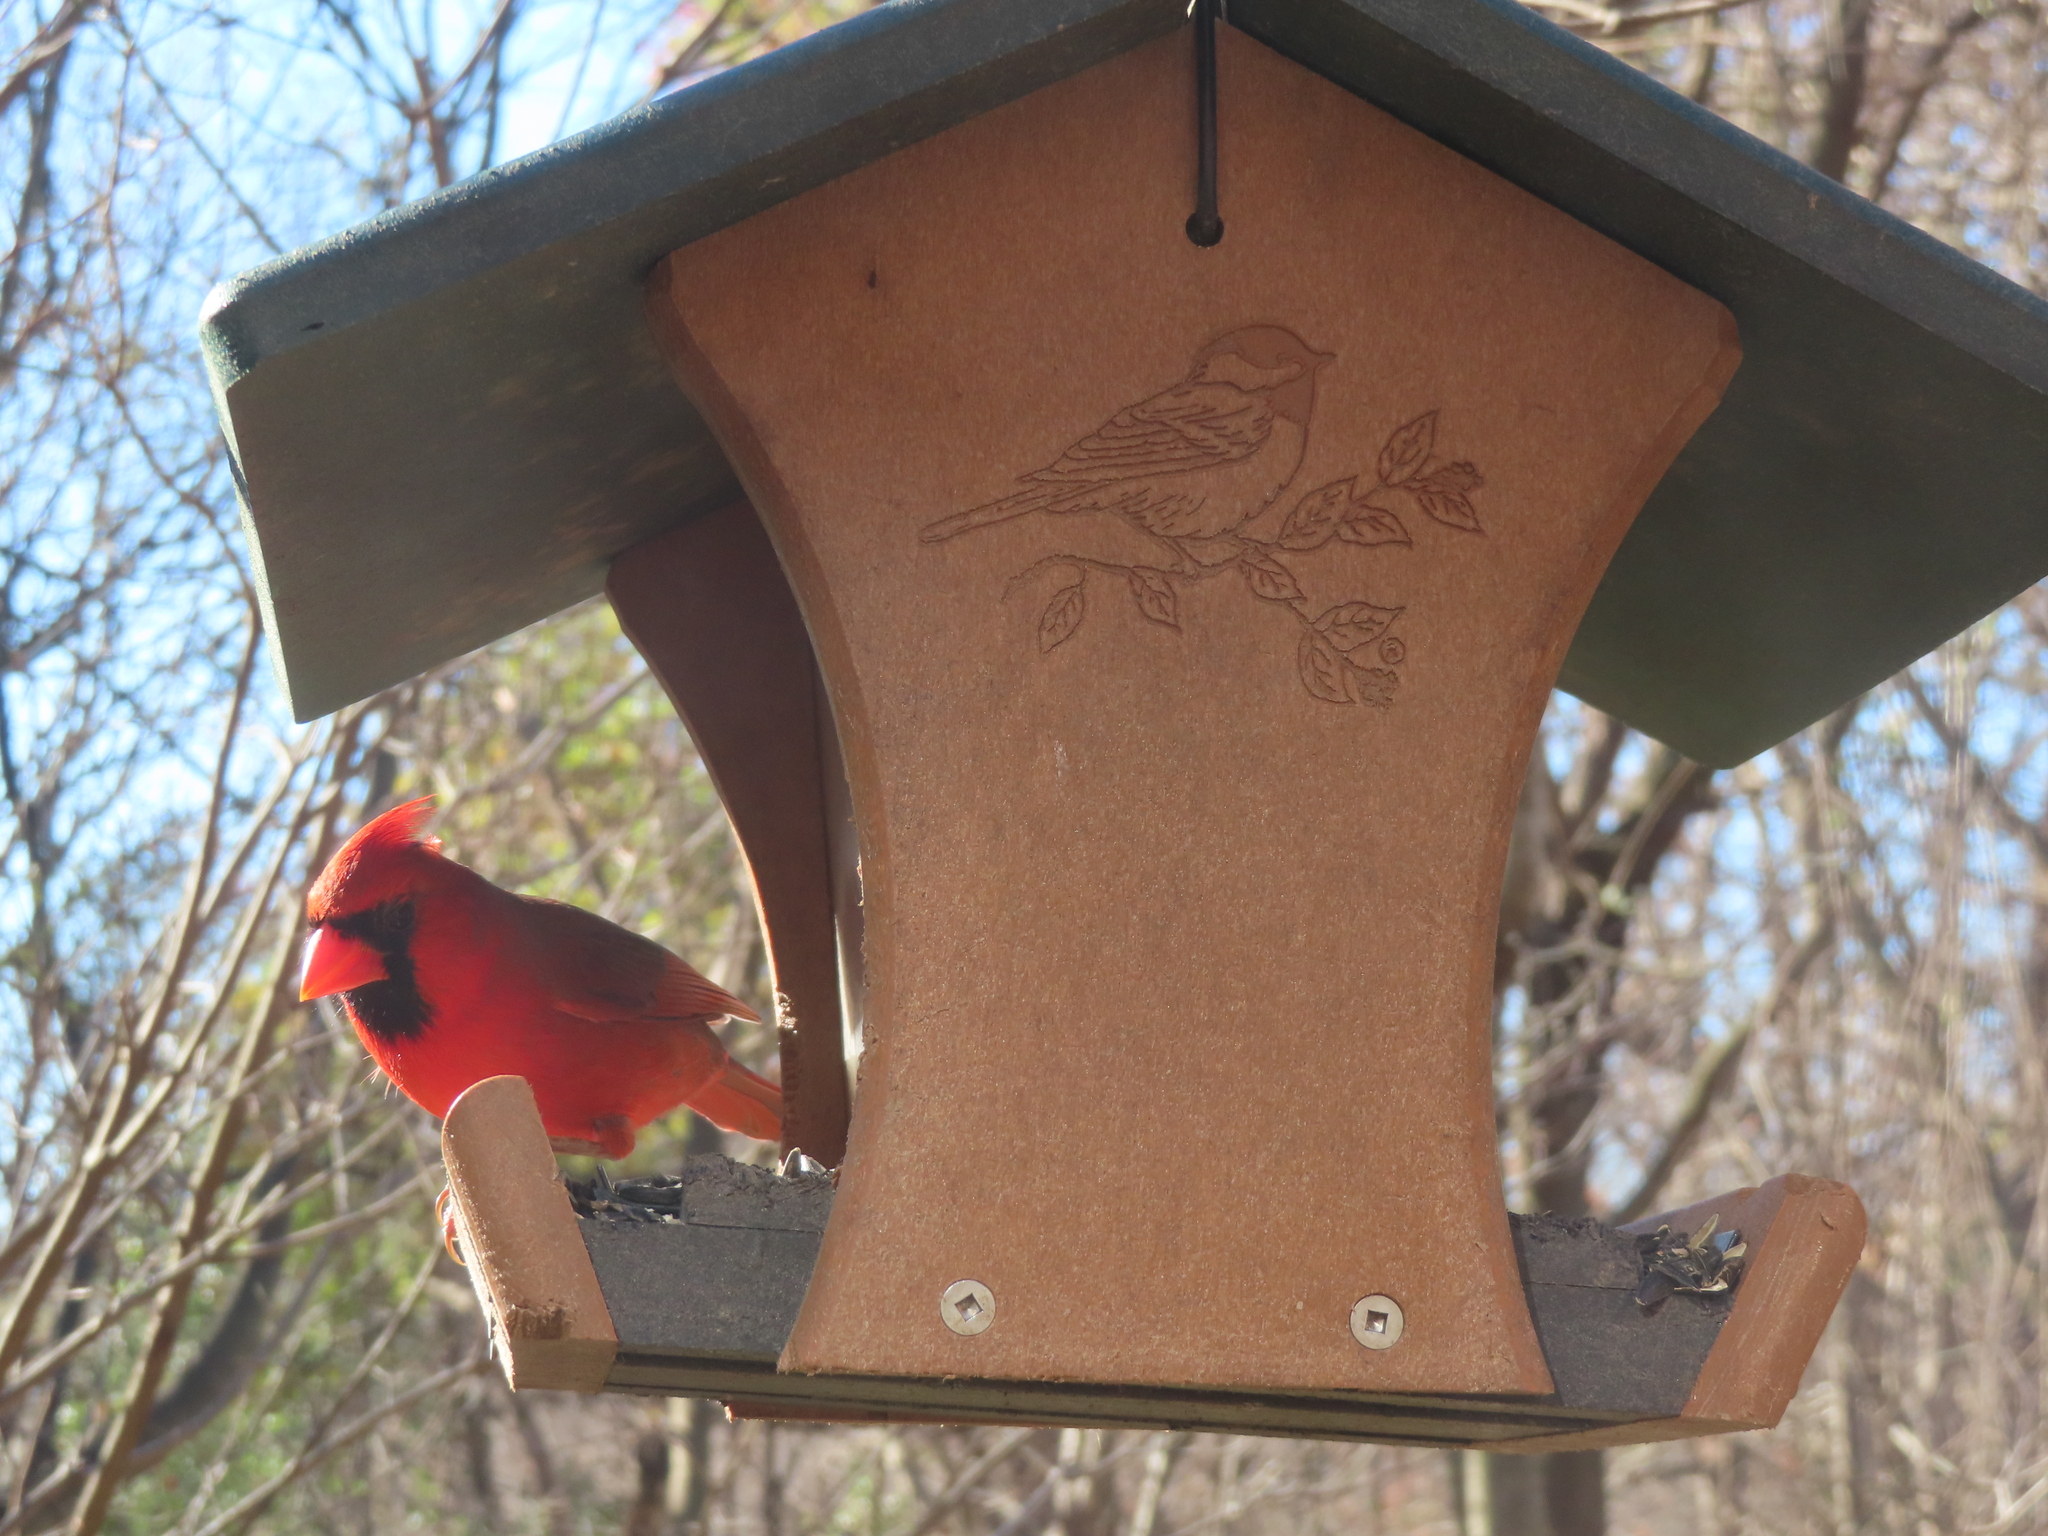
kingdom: Animalia
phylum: Chordata
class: Aves
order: Passeriformes
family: Cardinalidae
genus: Cardinalis
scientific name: Cardinalis cardinalis
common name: Northern cardinal
